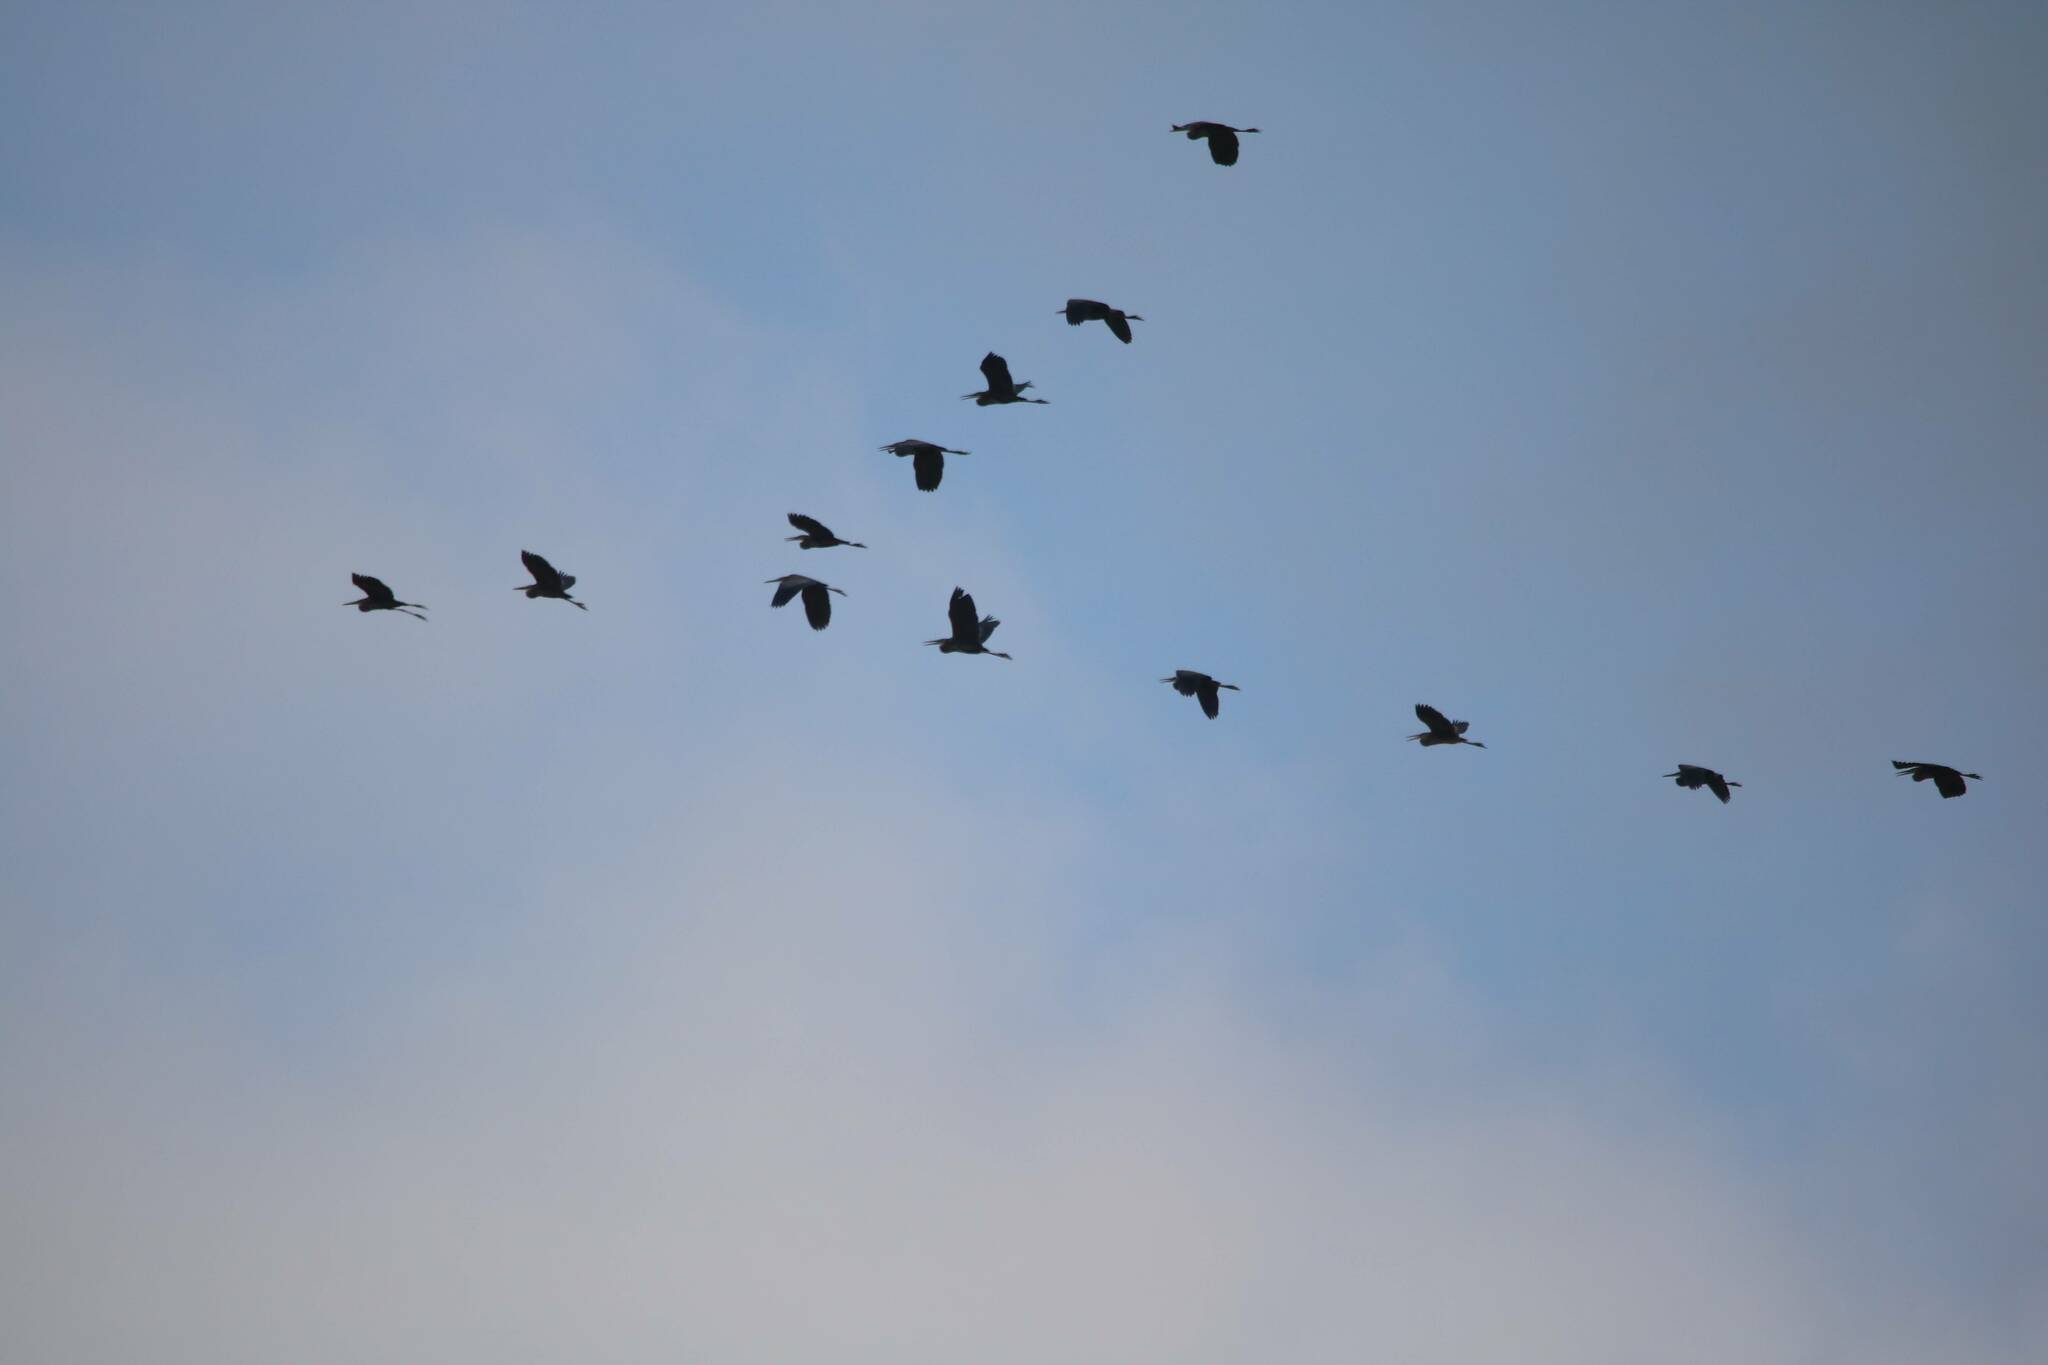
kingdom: Animalia
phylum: Chordata
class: Aves
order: Pelecaniformes
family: Ardeidae
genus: Ardea
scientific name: Ardea purpurea
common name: Purple heron
